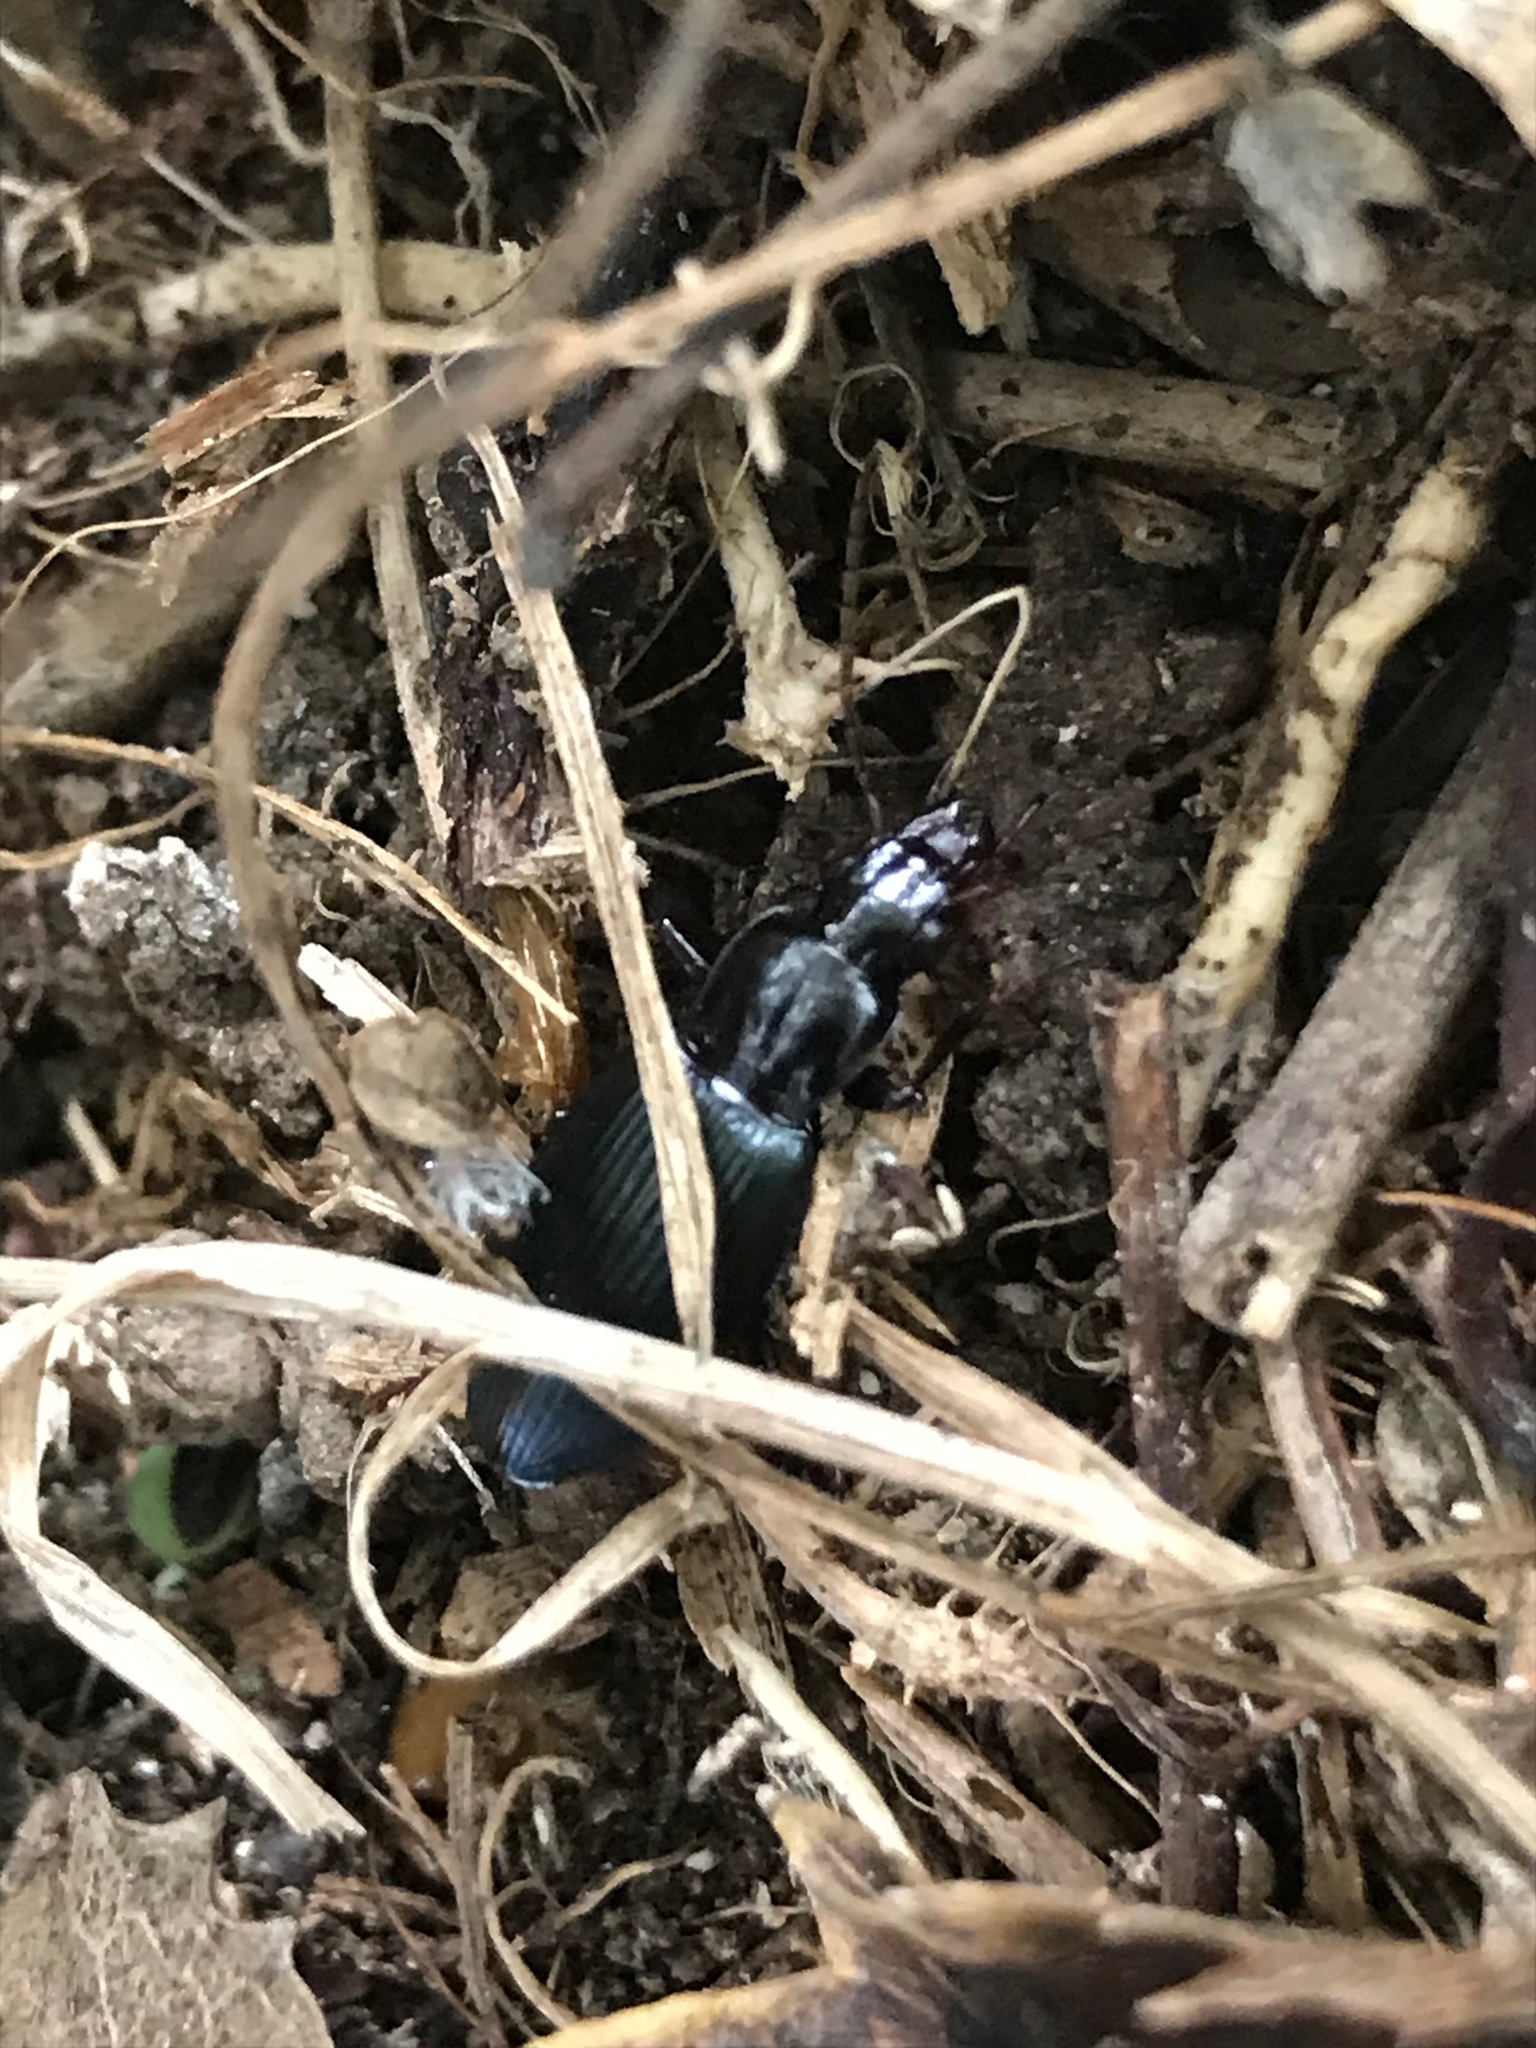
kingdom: Animalia
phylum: Arthropoda
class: Insecta
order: Coleoptera
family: Carabidae
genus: Laemostenus
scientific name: Laemostenus complanatus
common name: Cosmopolitan ground beetle
